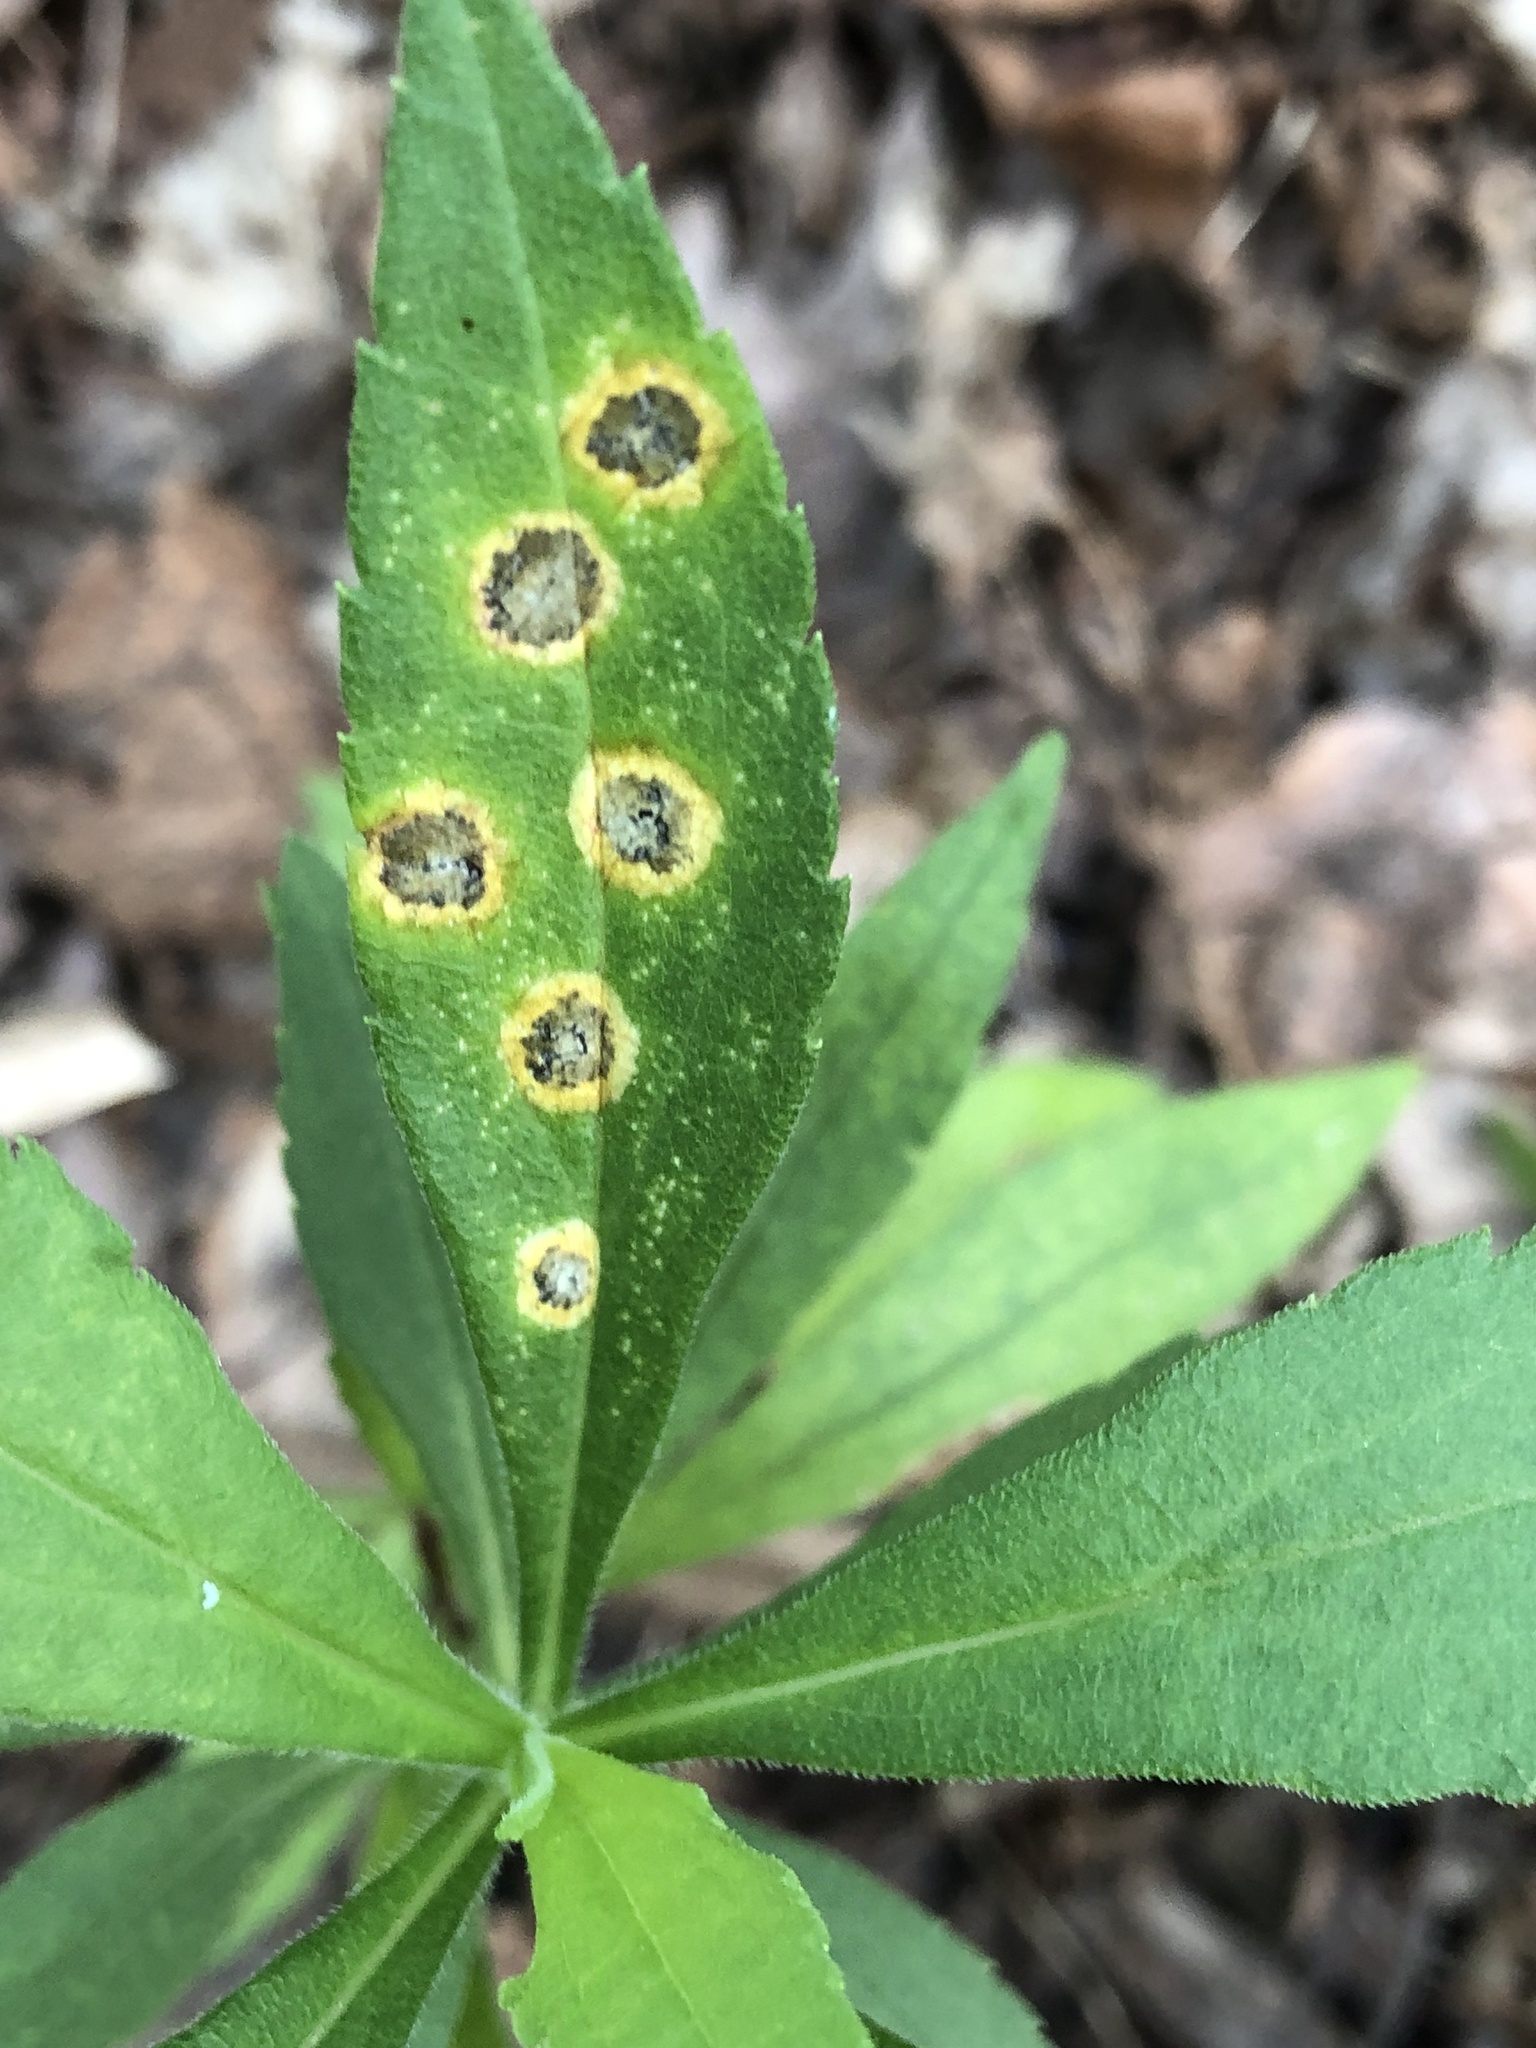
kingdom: Animalia
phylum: Arthropoda
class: Insecta
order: Diptera
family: Cecidomyiidae
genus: Asteromyia
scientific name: Asteromyia carbonifera
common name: Carbonifera goldenrod gall midge
